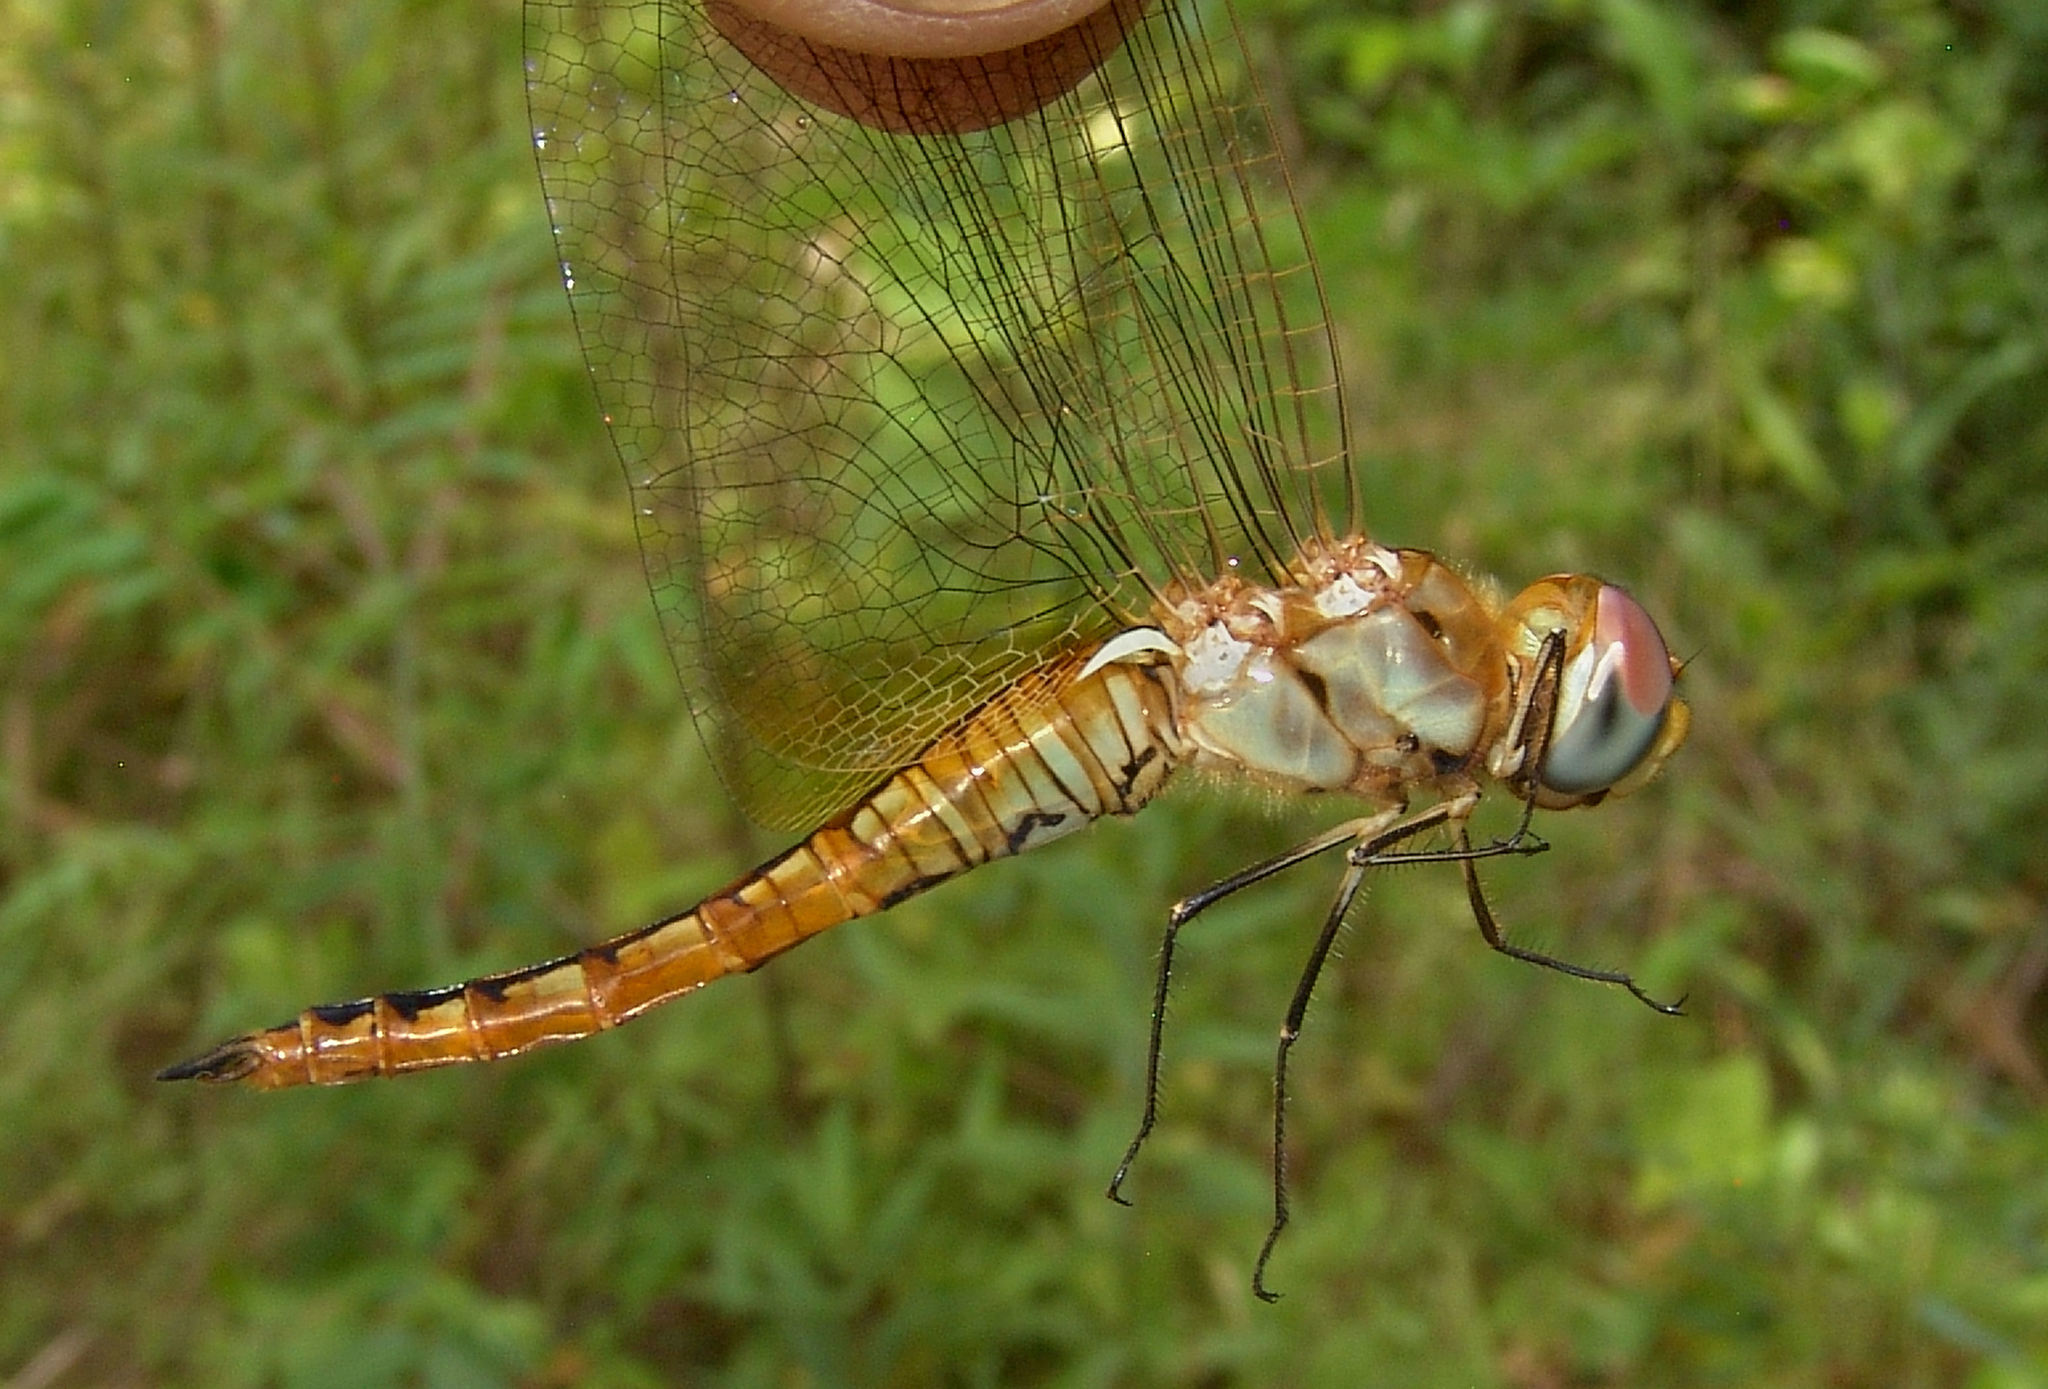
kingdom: Animalia
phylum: Arthropoda
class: Insecta
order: Odonata
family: Libellulidae
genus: Pantala
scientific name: Pantala flavescens
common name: Wandering glider
